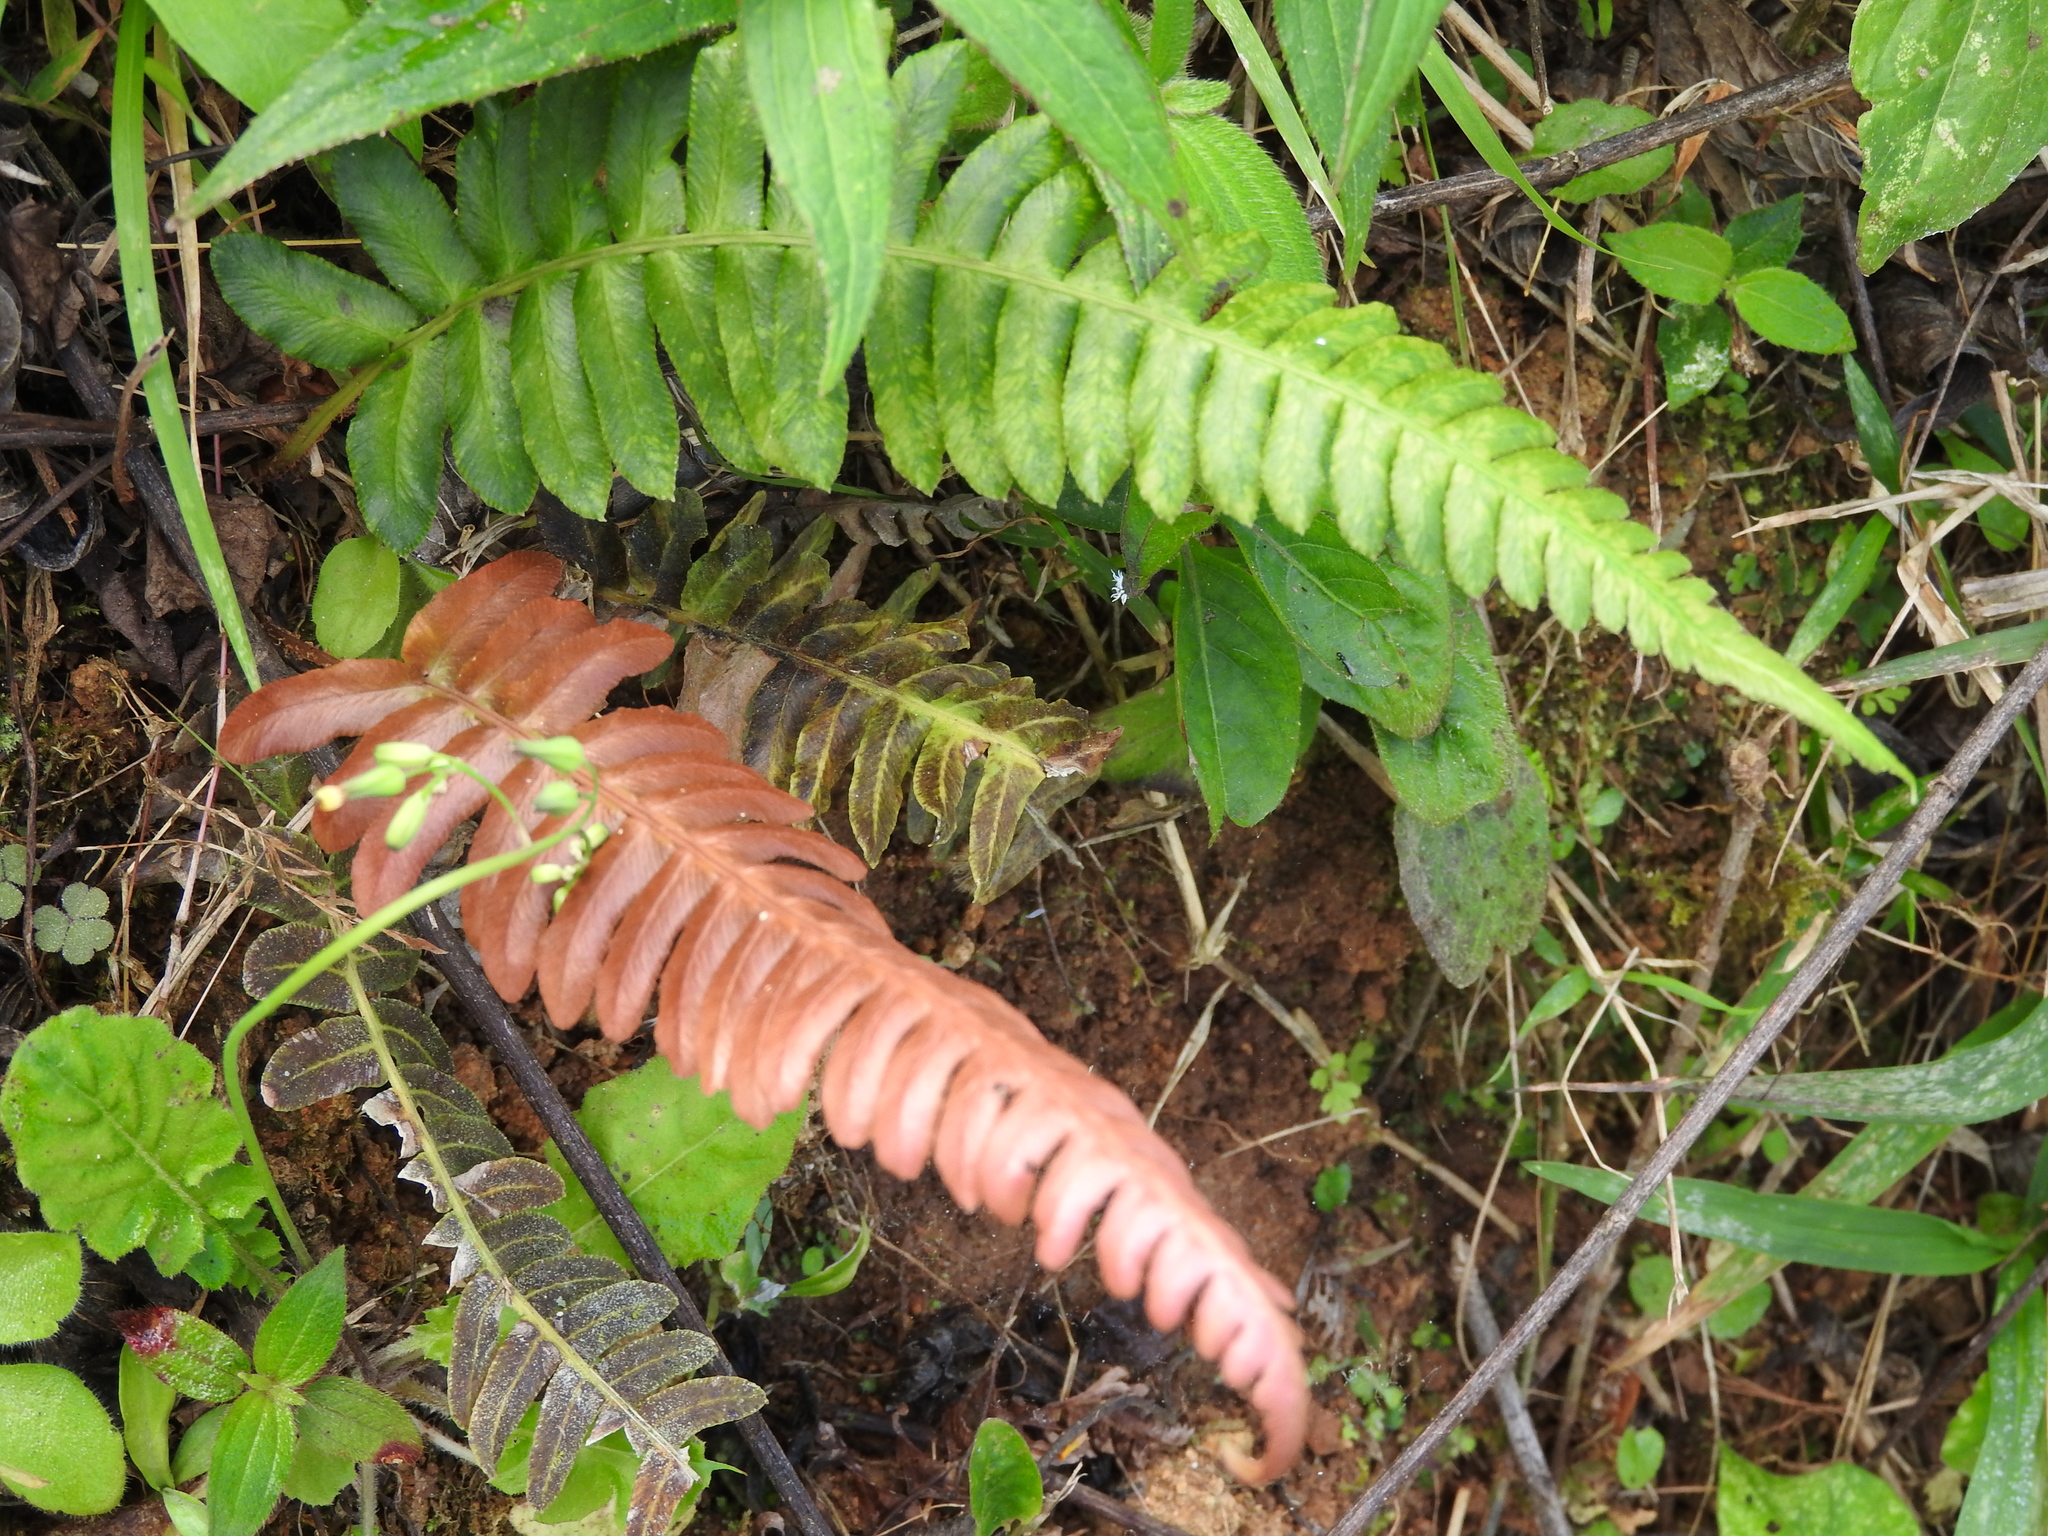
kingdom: Plantae
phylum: Tracheophyta
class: Polypodiopsida
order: Polypodiales
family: Blechnaceae
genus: Blechnum
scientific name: Blechnum occidentale
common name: Hammock fern
